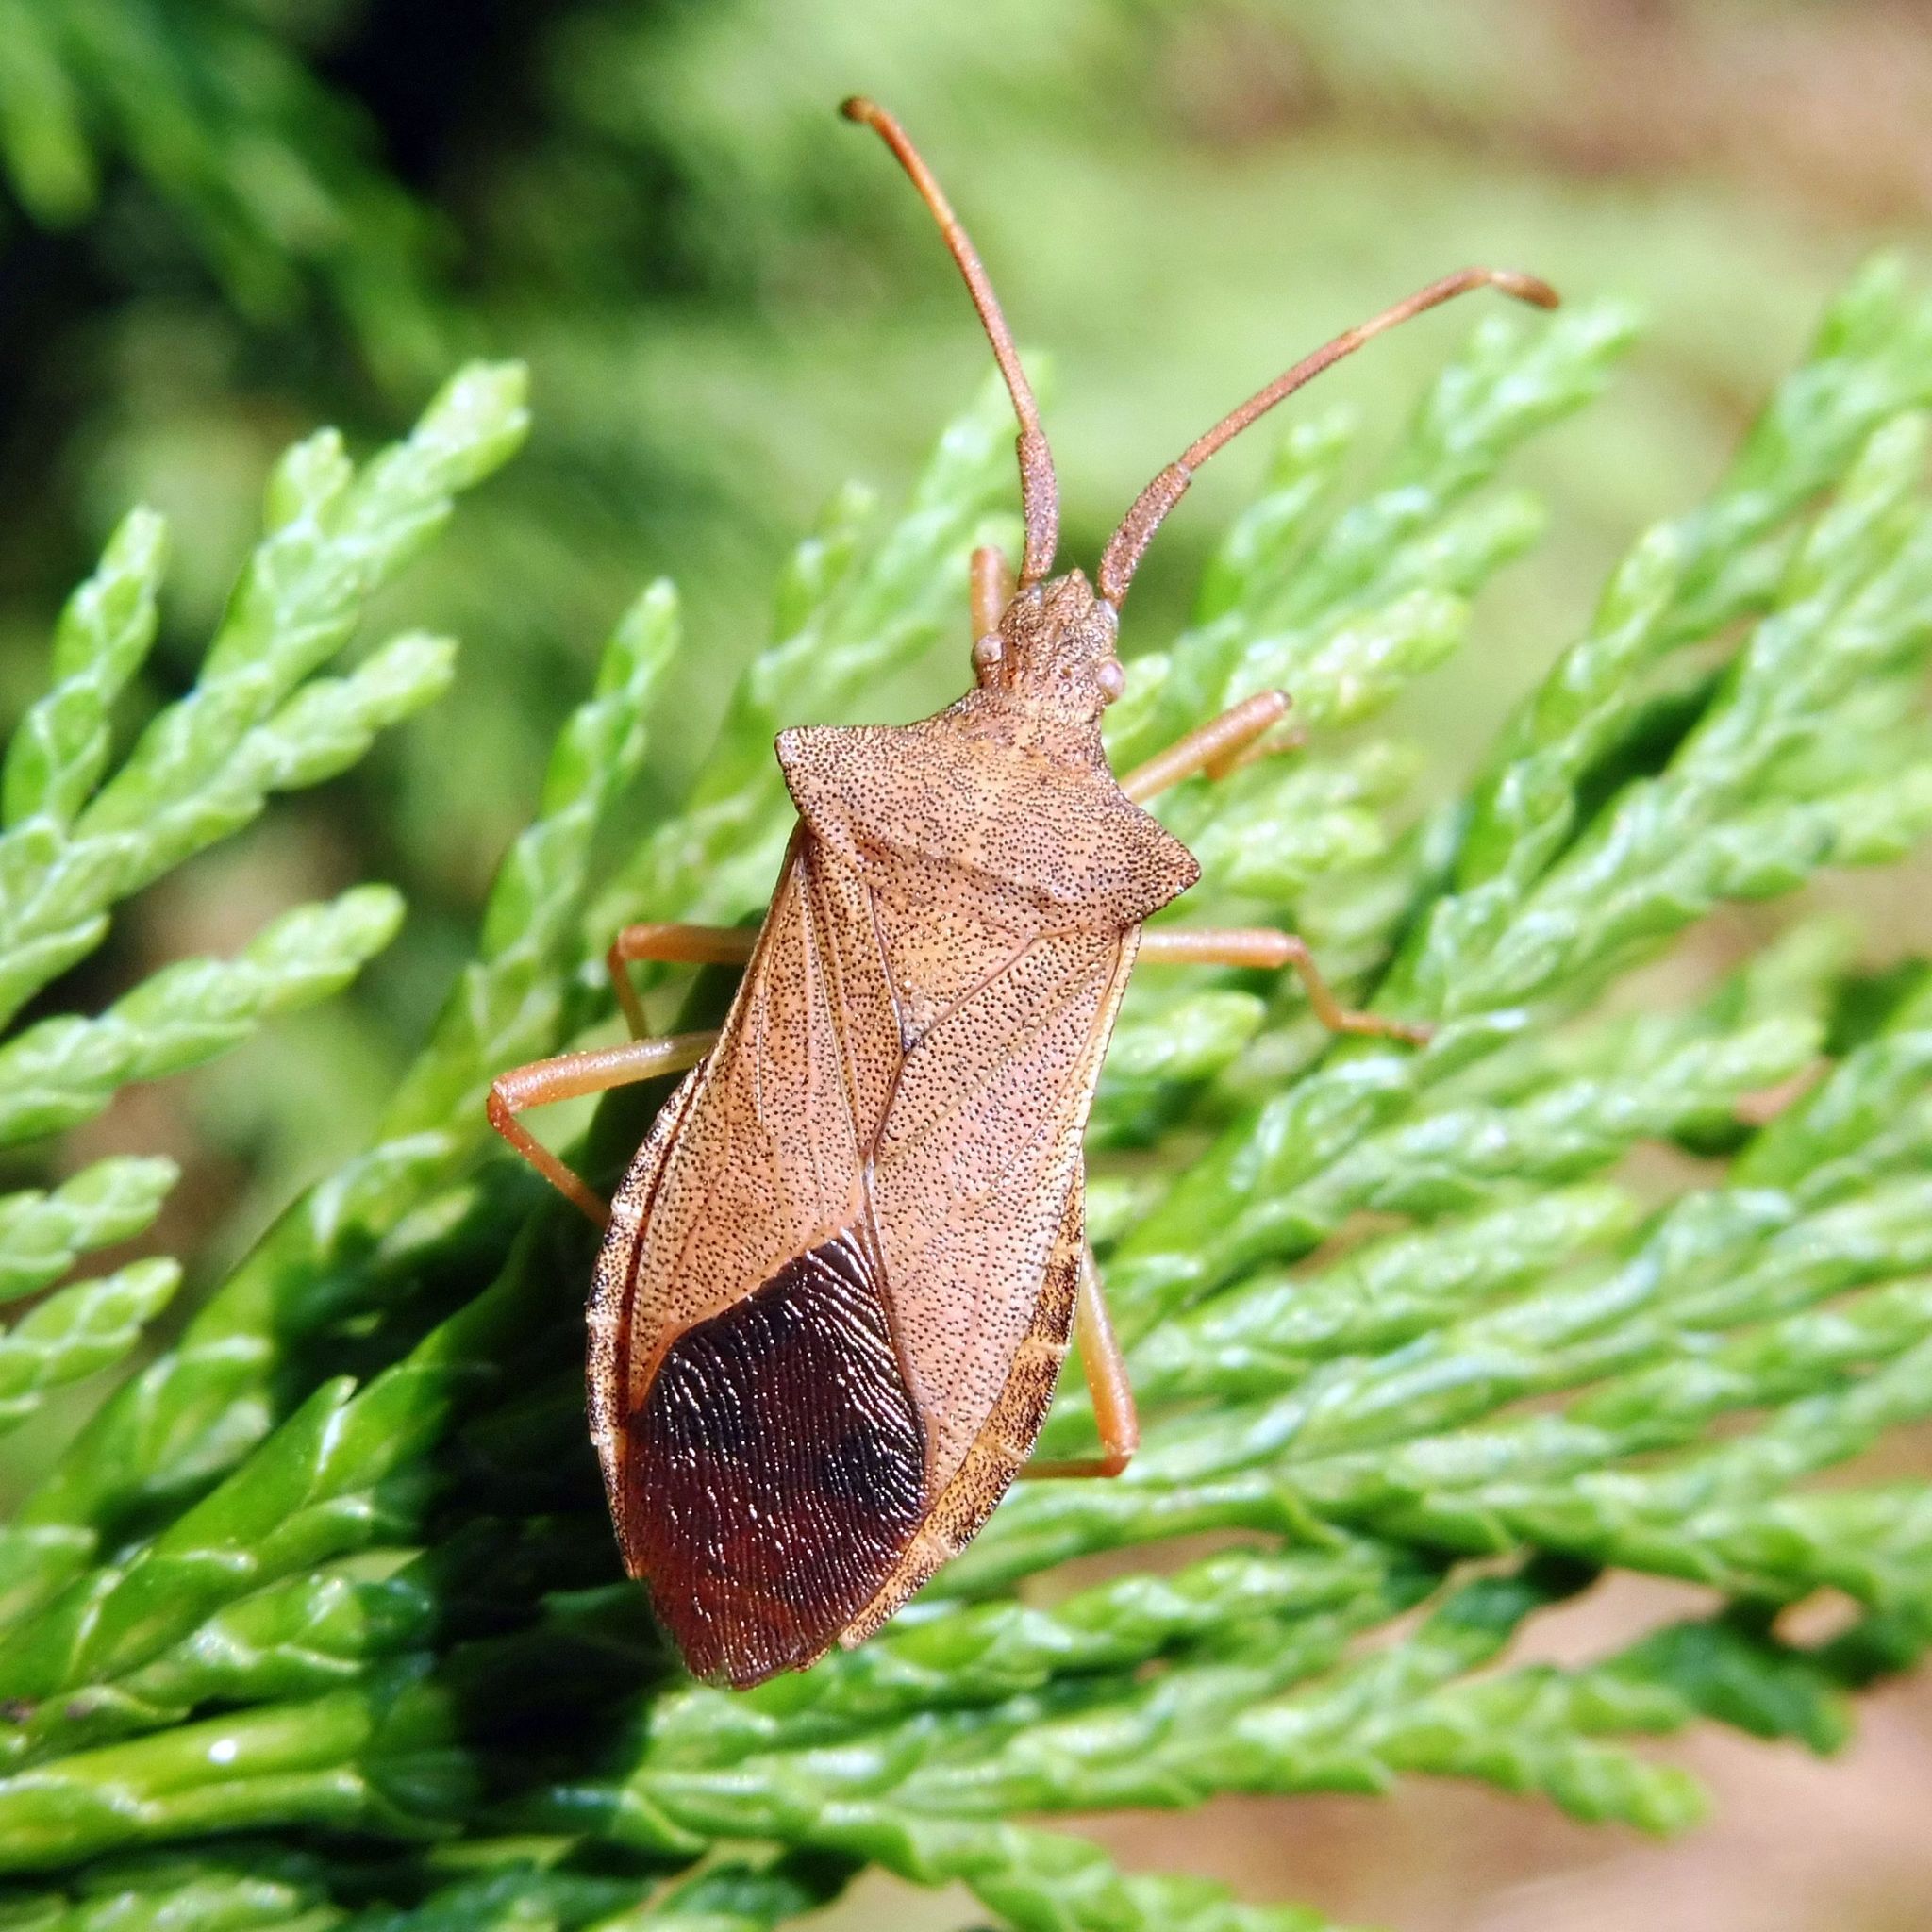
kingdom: Animalia
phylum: Arthropoda
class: Insecta
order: Hemiptera
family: Coreidae
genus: Gonocerus
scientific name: Gonocerus acuteangulatus
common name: Box bug
